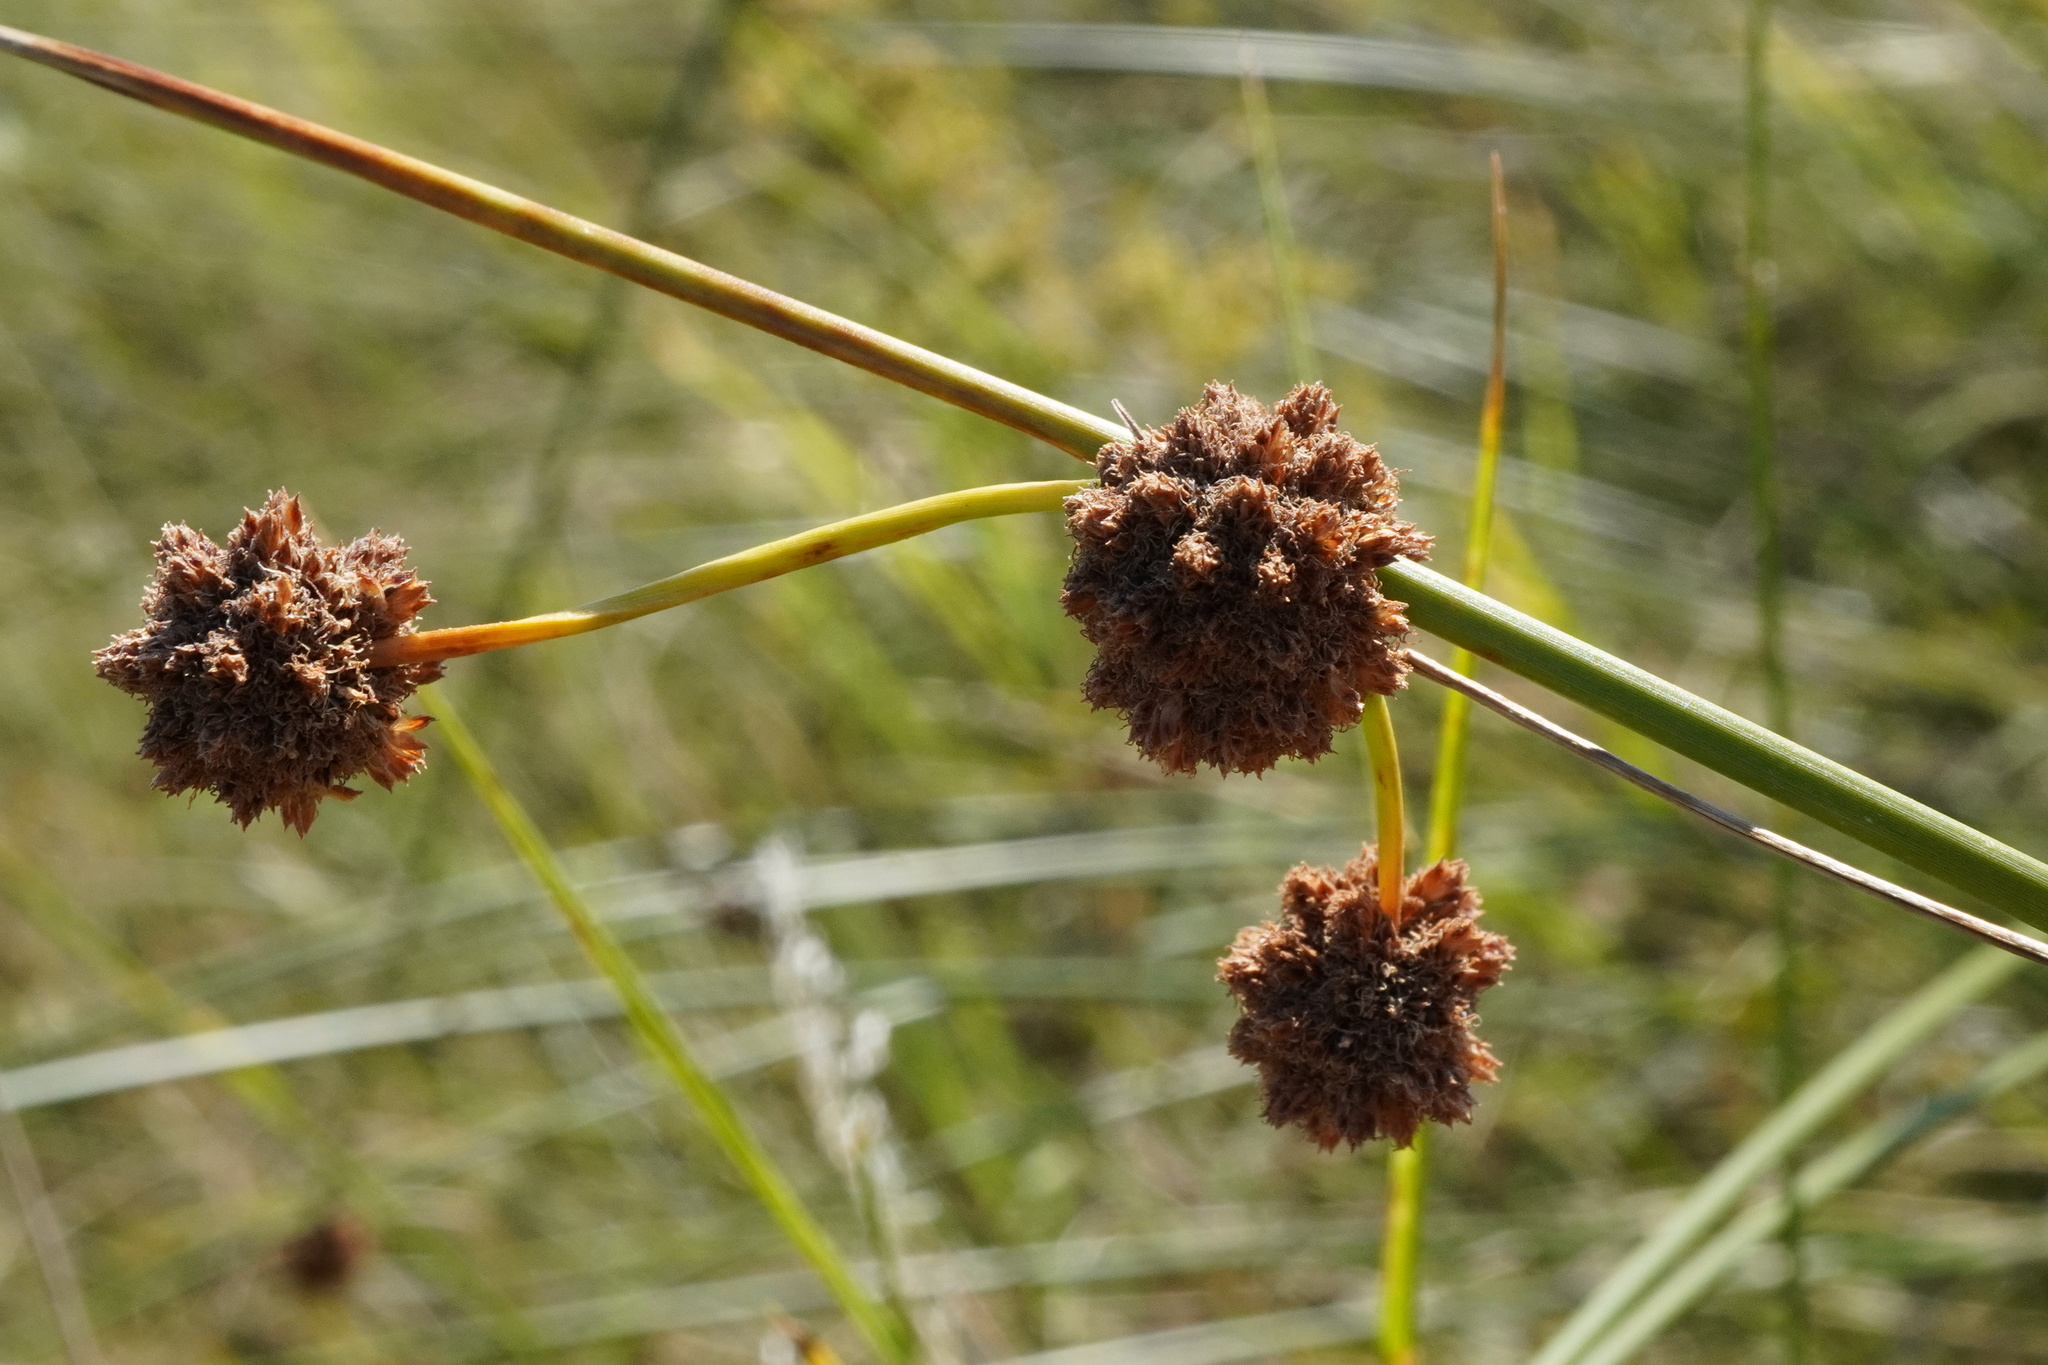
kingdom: Plantae
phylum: Tracheophyta
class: Liliopsida
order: Poales
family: Cyperaceae
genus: Scirpoides
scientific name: Scirpoides holoschoenus
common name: Round-headed club-rush
